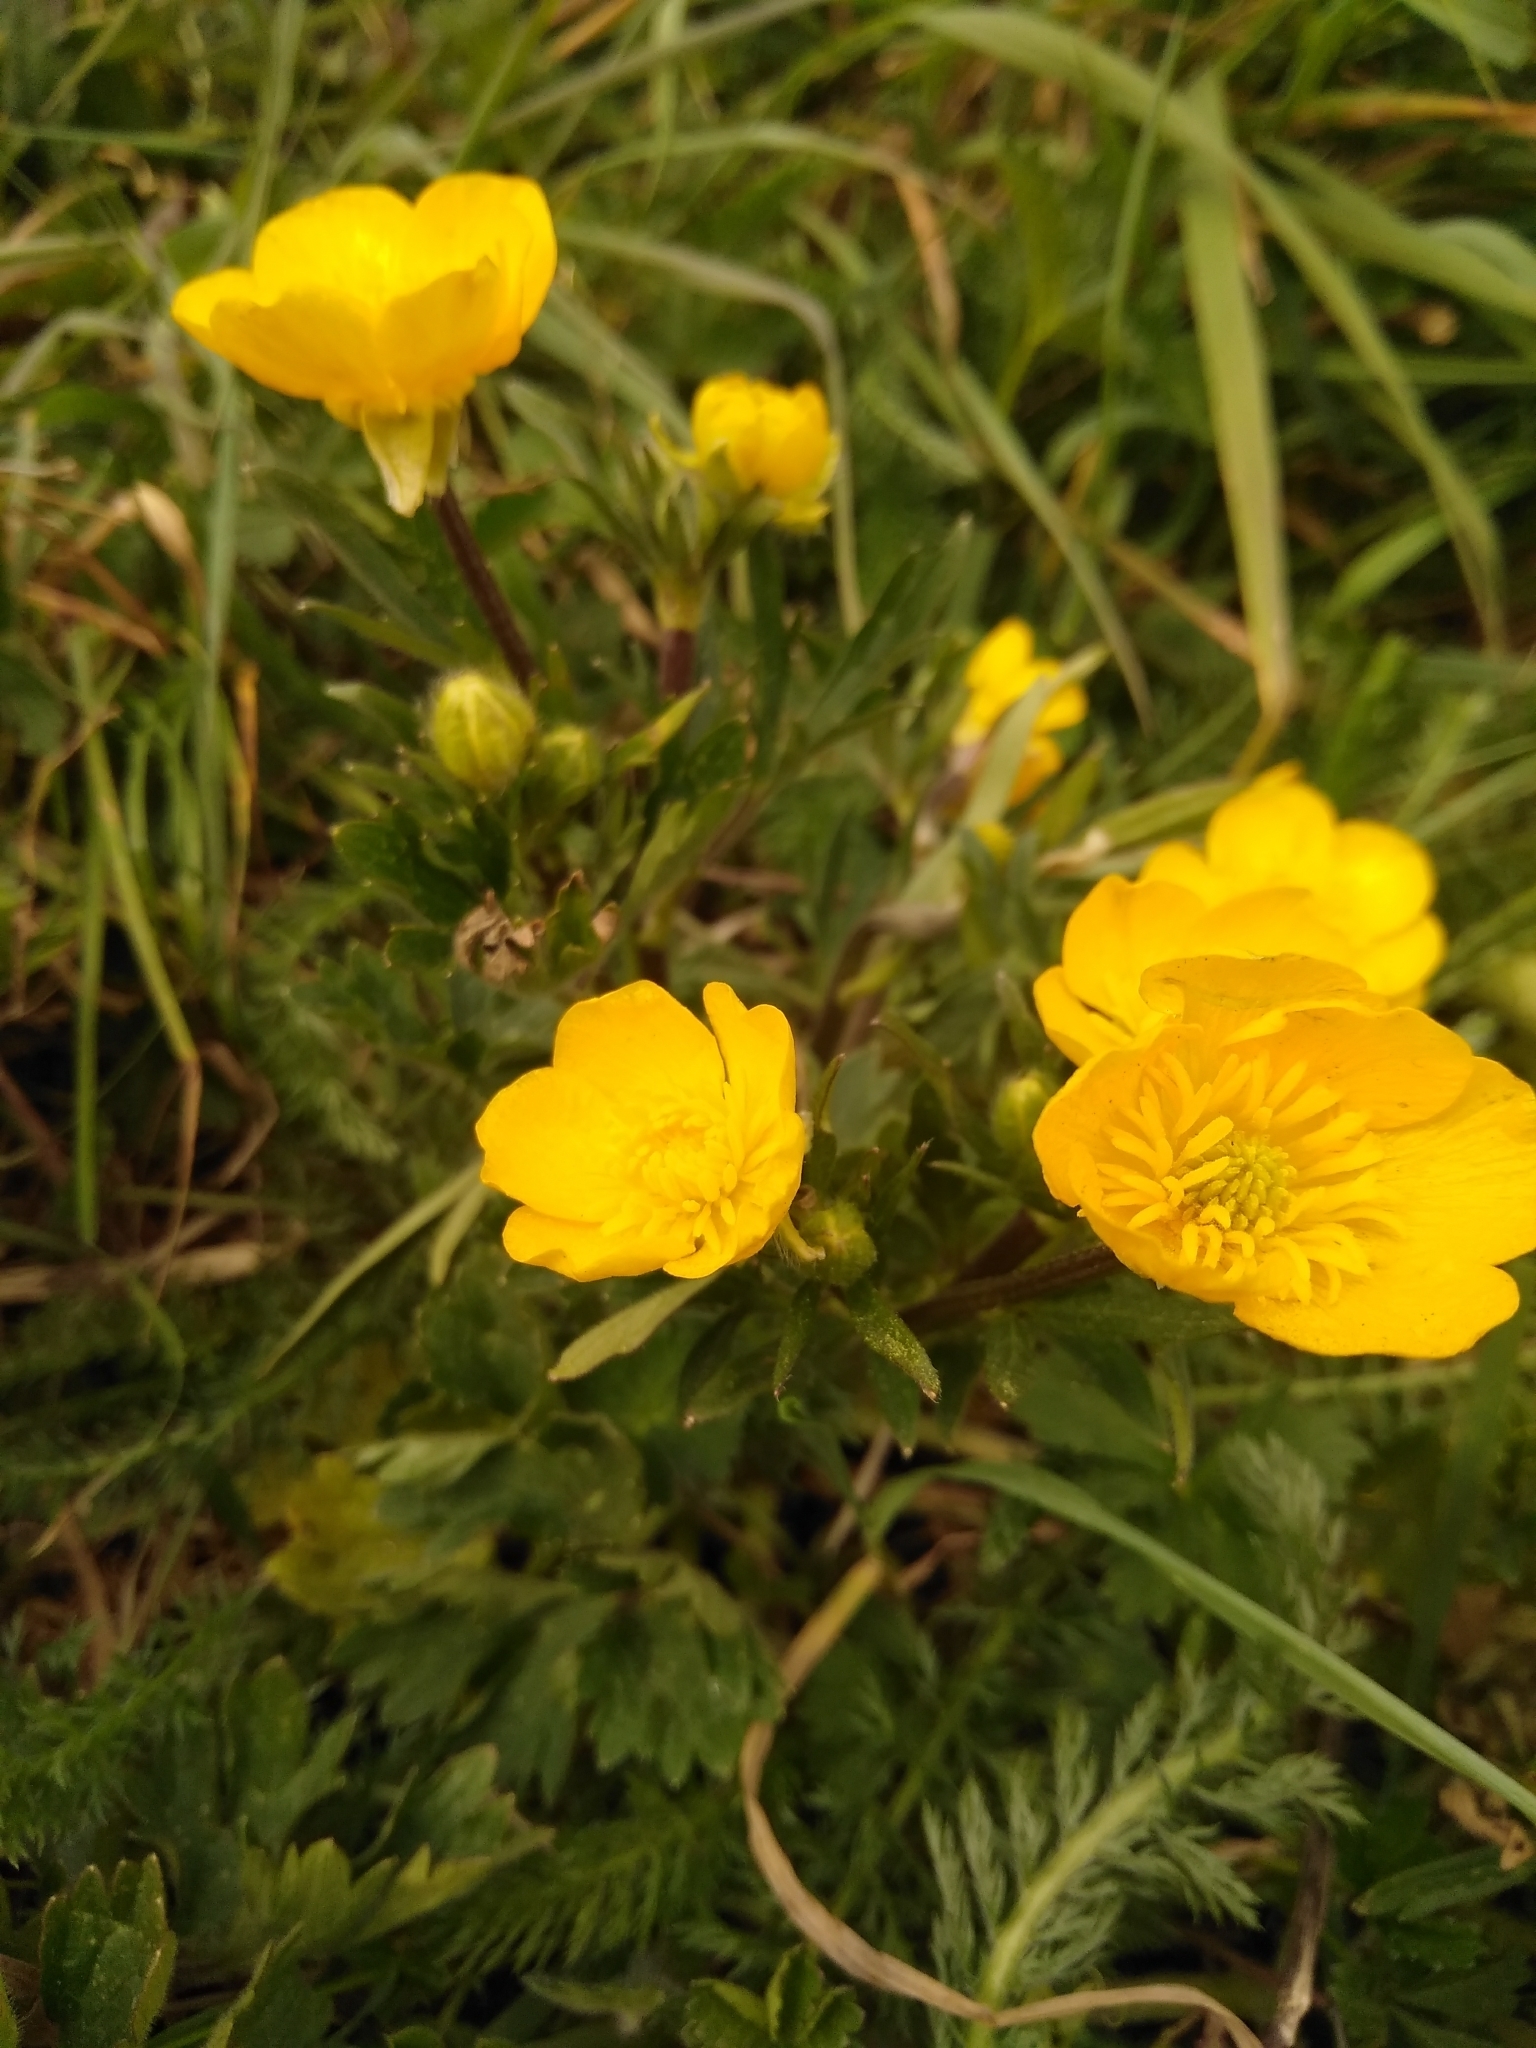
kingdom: Plantae
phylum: Tracheophyta
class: Magnoliopsida
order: Ranunculales
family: Ranunculaceae
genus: Ranunculus
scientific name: Ranunculus bulbosus
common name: Bulbous buttercup
